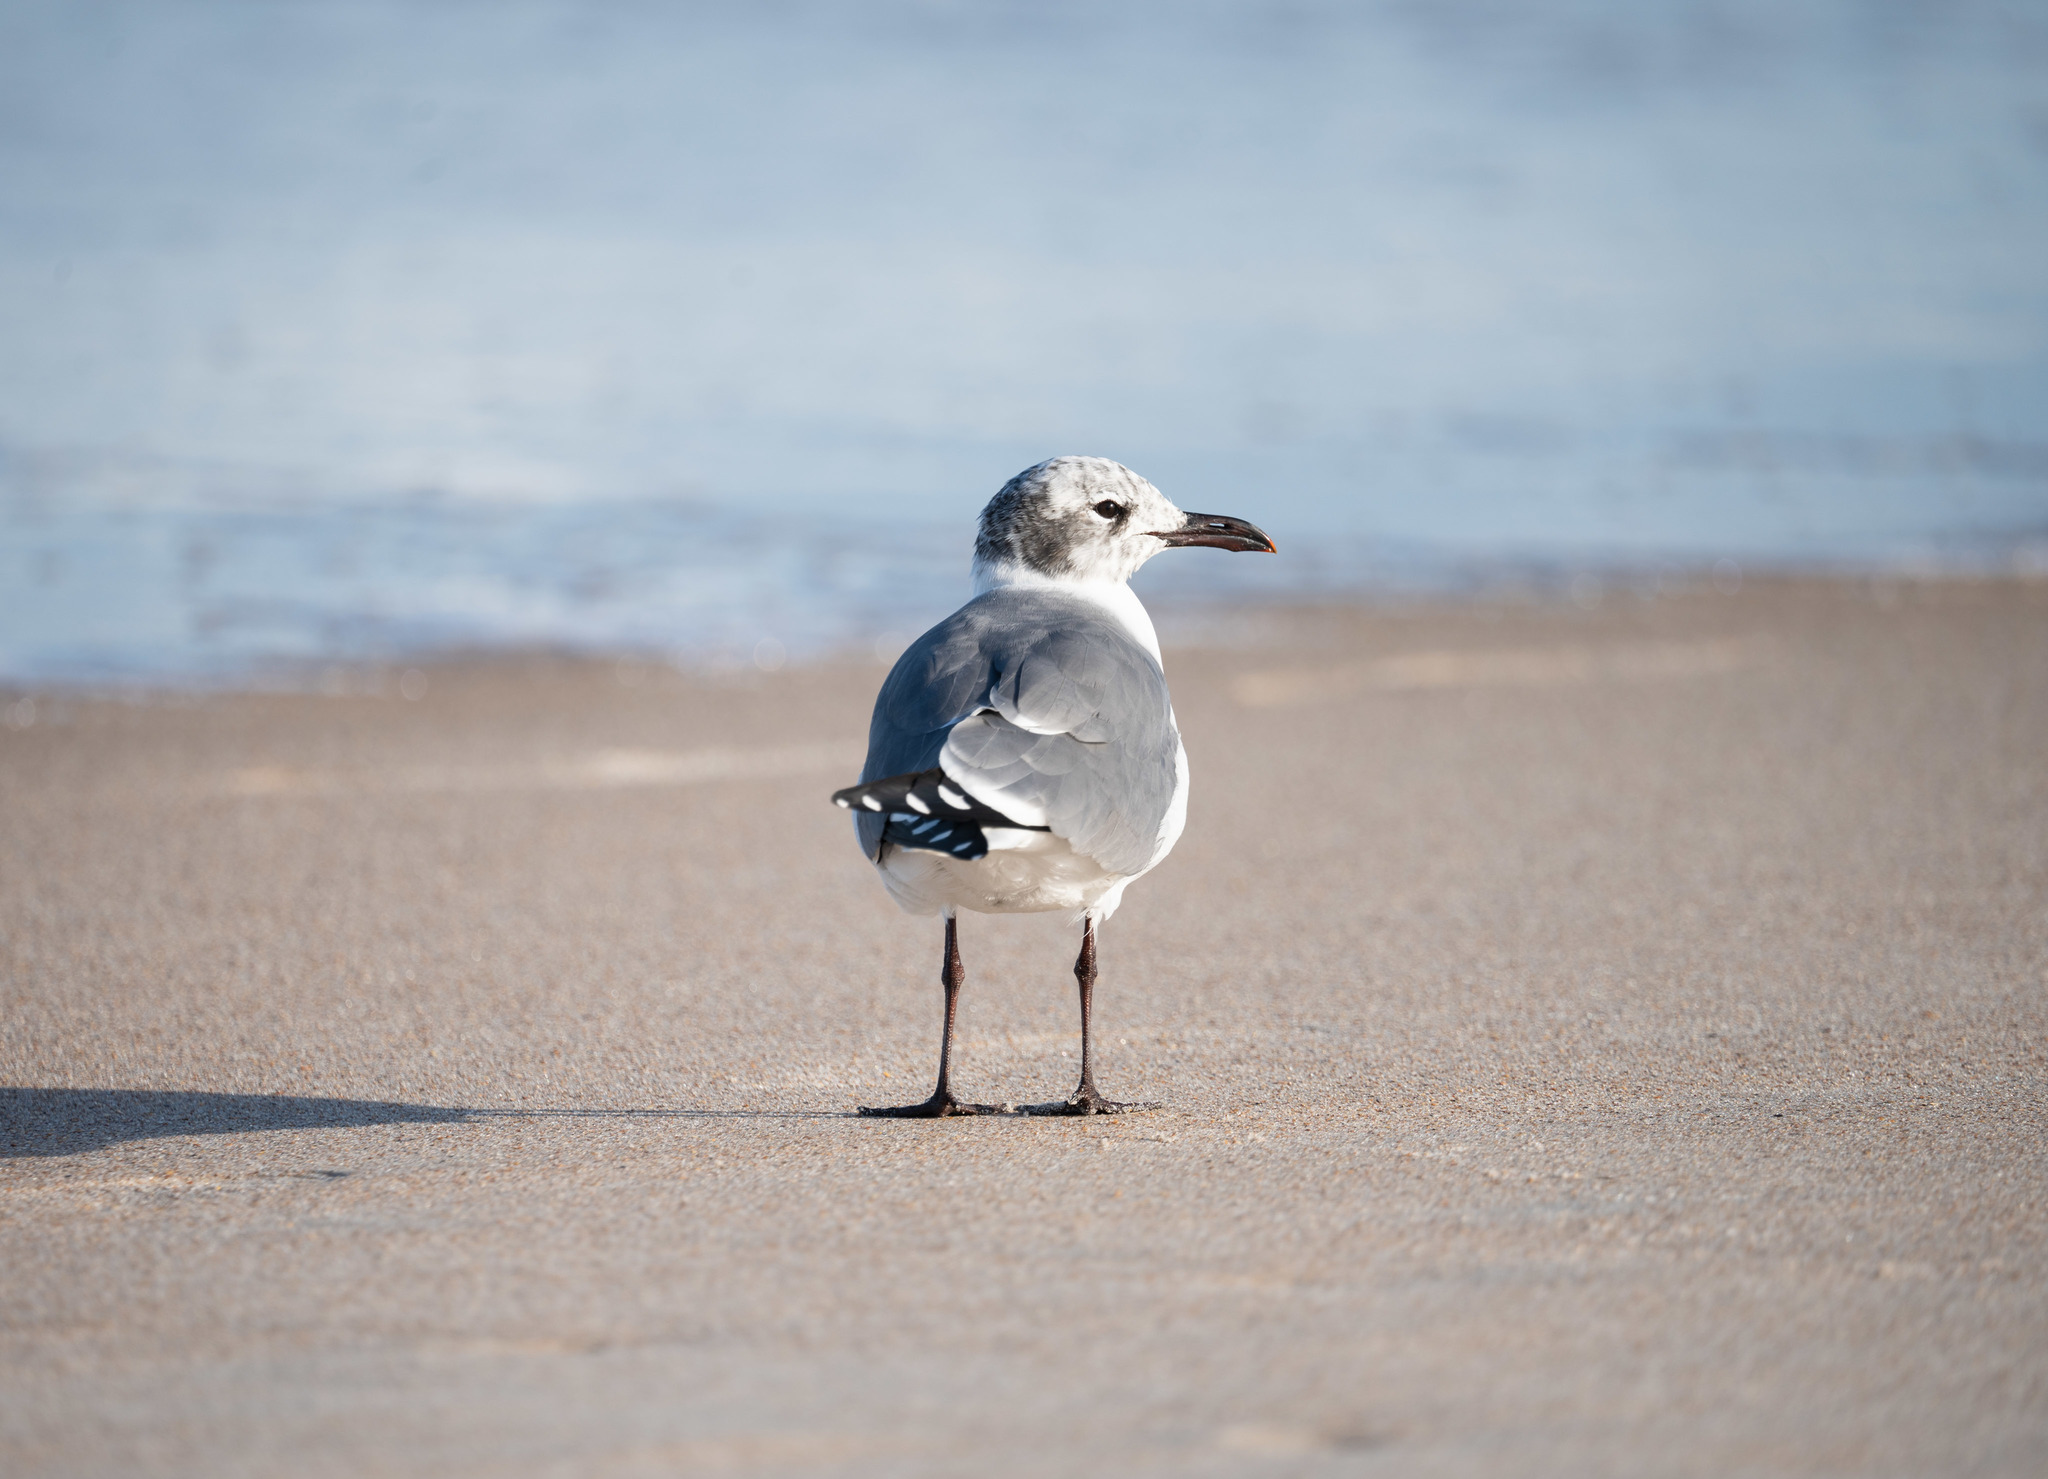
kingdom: Animalia
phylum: Chordata
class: Aves
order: Charadriiformes
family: Laridae
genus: Leucophaeus
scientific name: Leucophaeus atricilla
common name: Laughing gull
